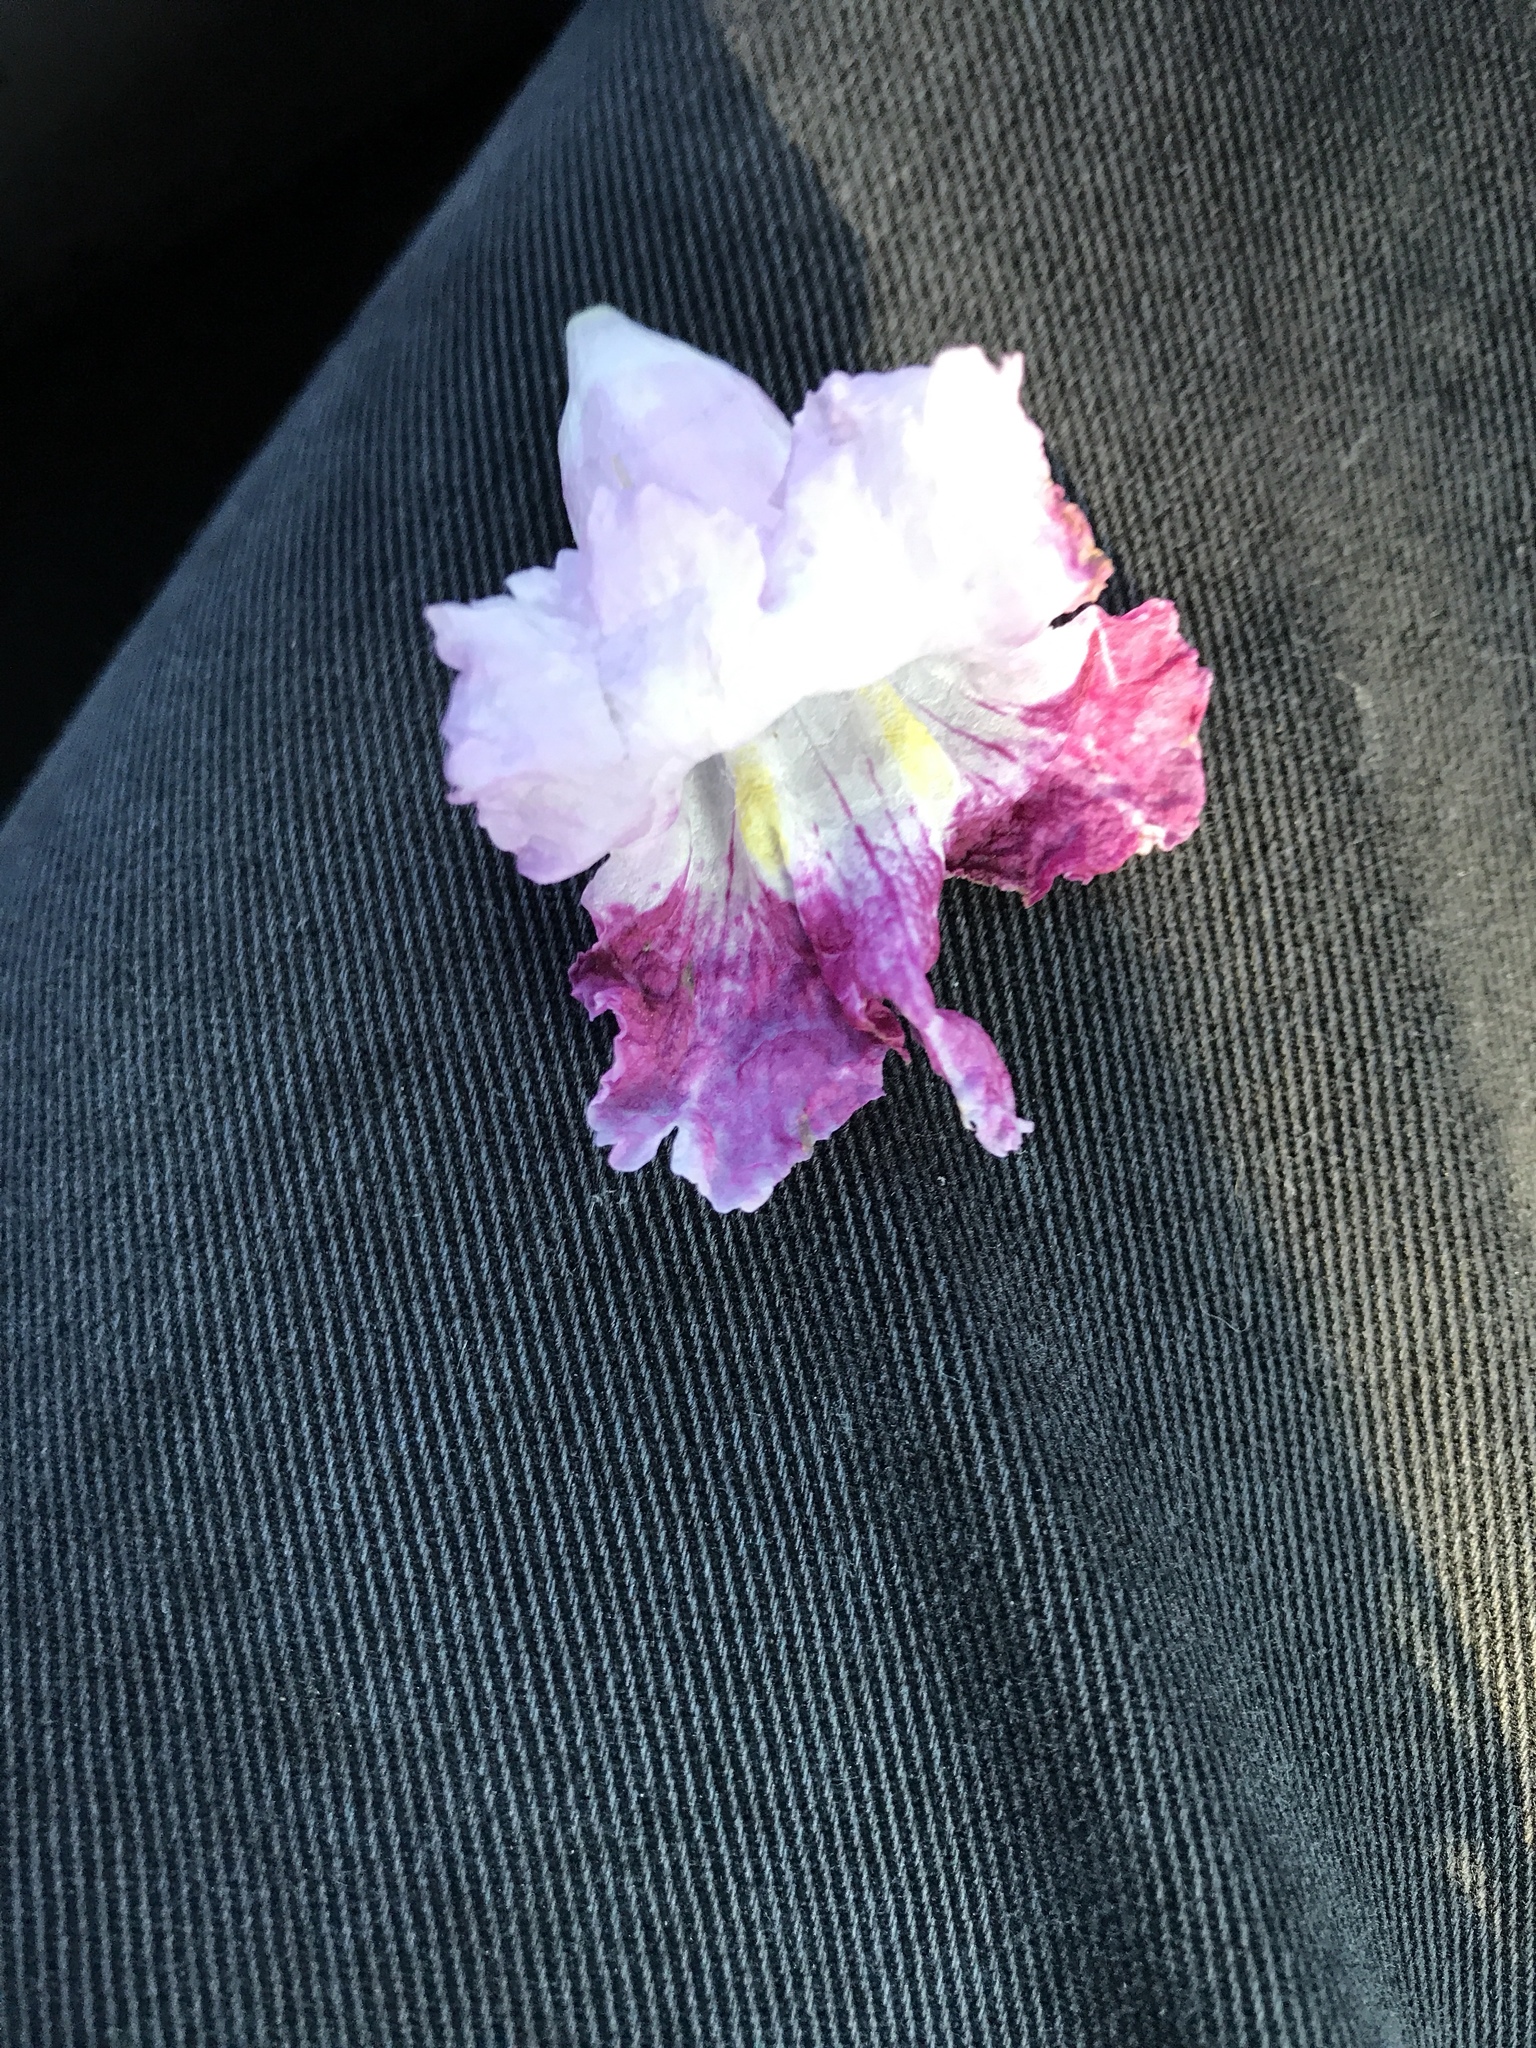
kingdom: Plantae
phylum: Tracheophyta
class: Magnoliopsida
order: Lamiales
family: Bignoniaceae
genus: Chilopsis
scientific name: Chilopsis linearis
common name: Desert-willow
